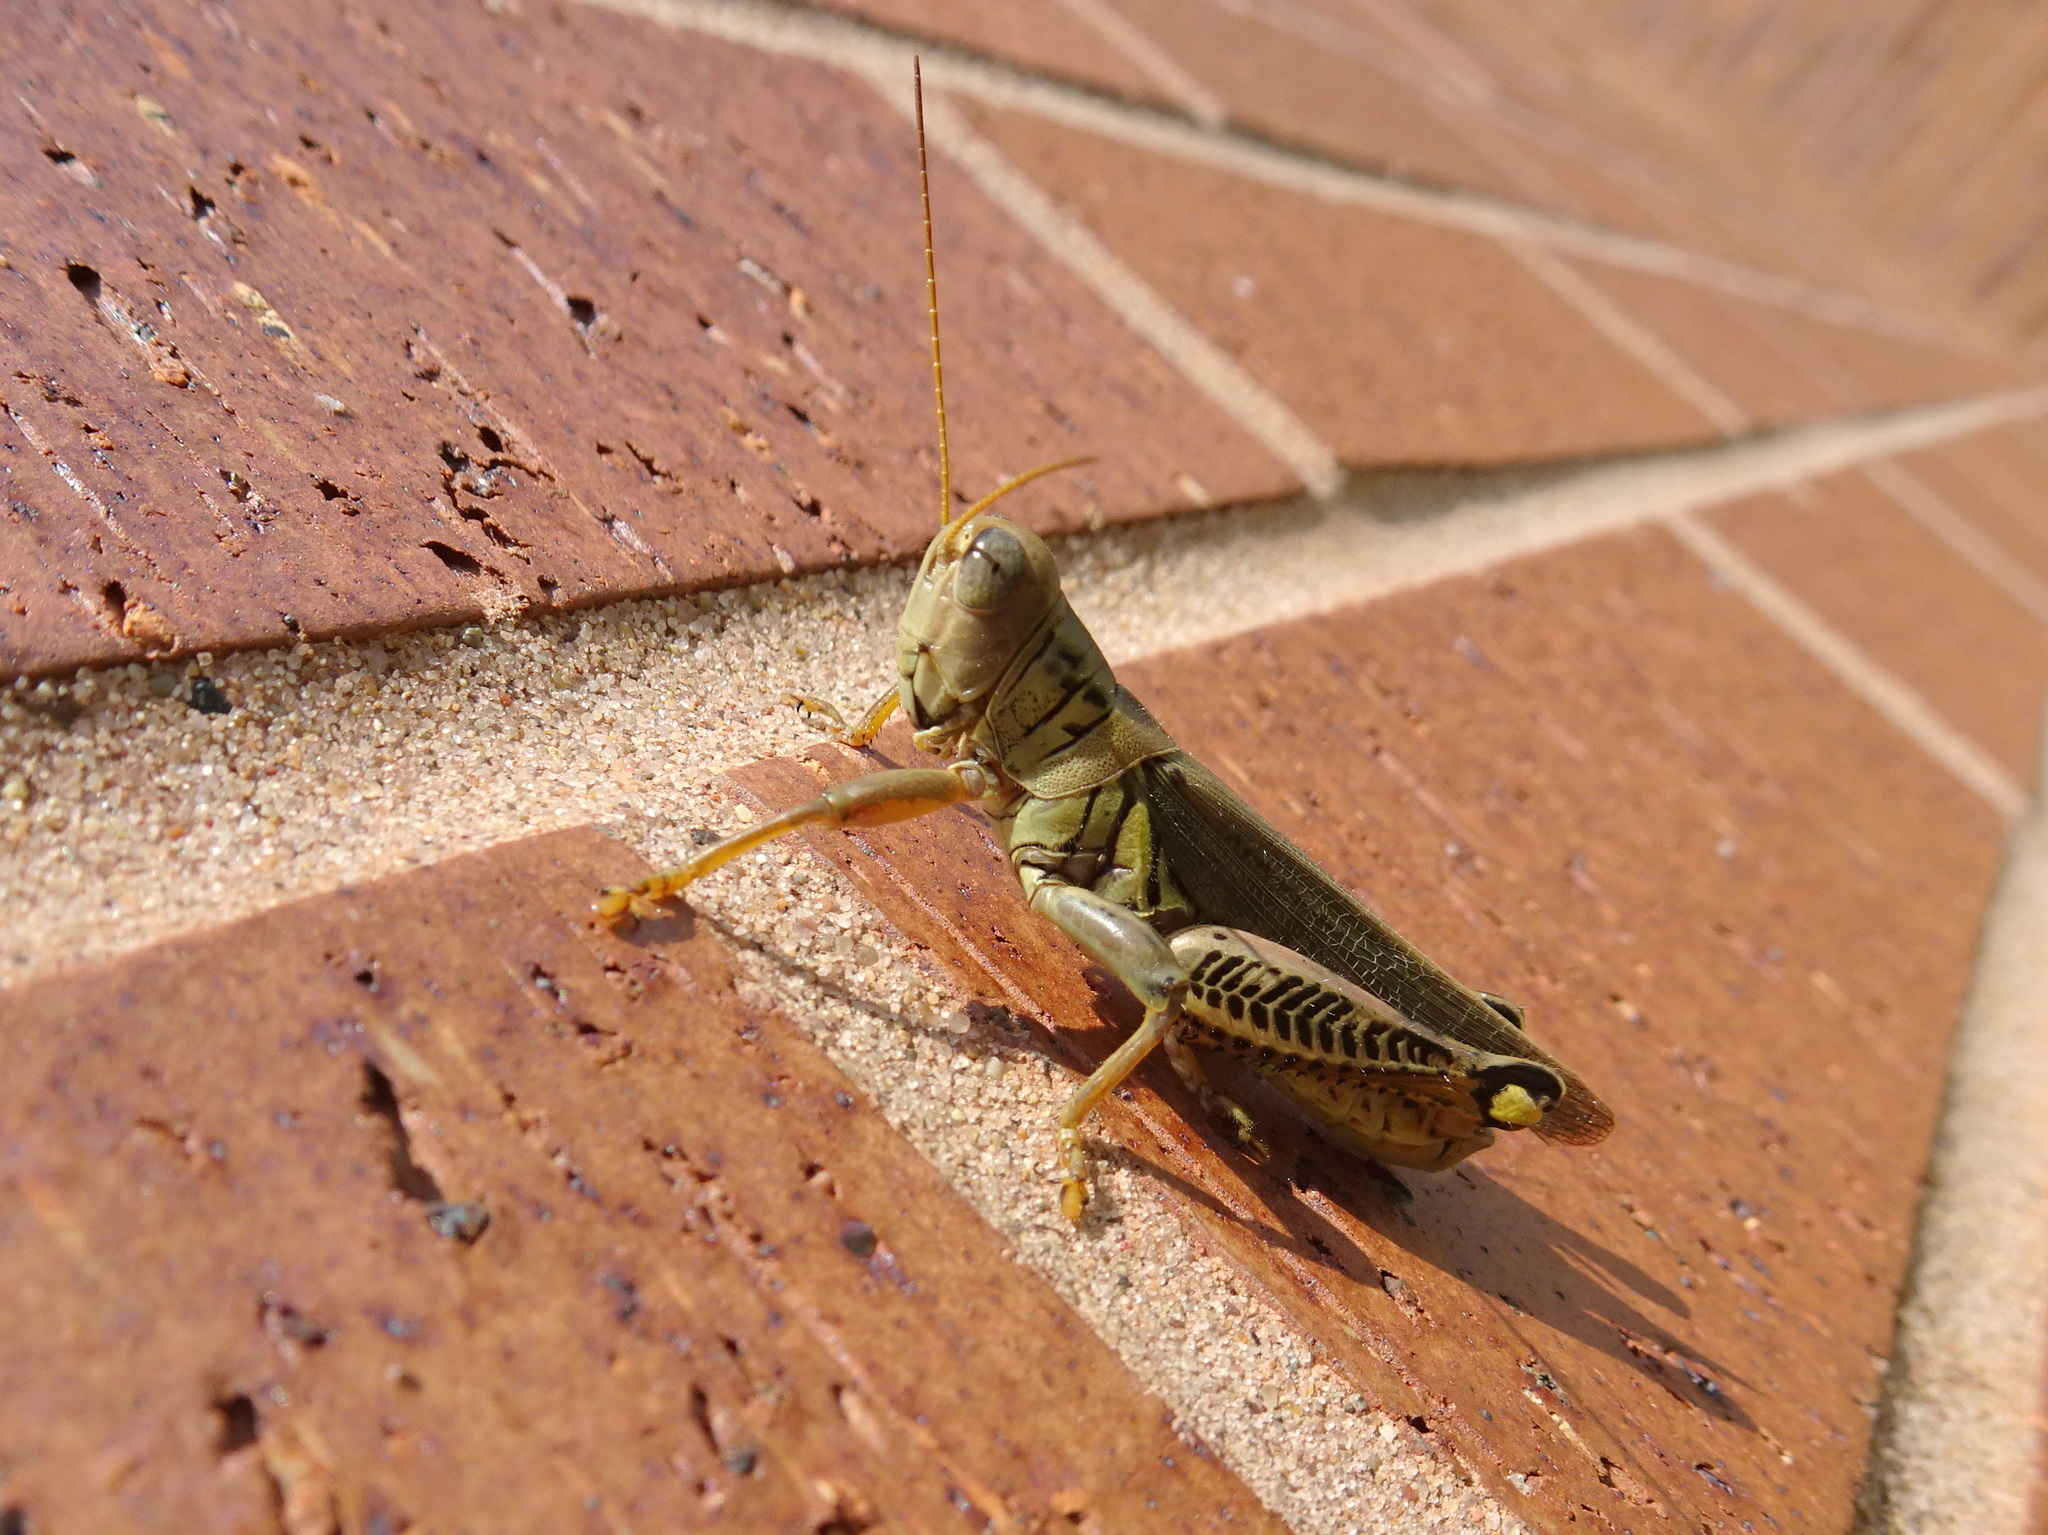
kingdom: Animalia
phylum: Arthropoda
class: Insecta
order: Orthoptera
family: Acrididae
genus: Melanoplus
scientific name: Melanoplus differentialis
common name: Differential grasshopper
